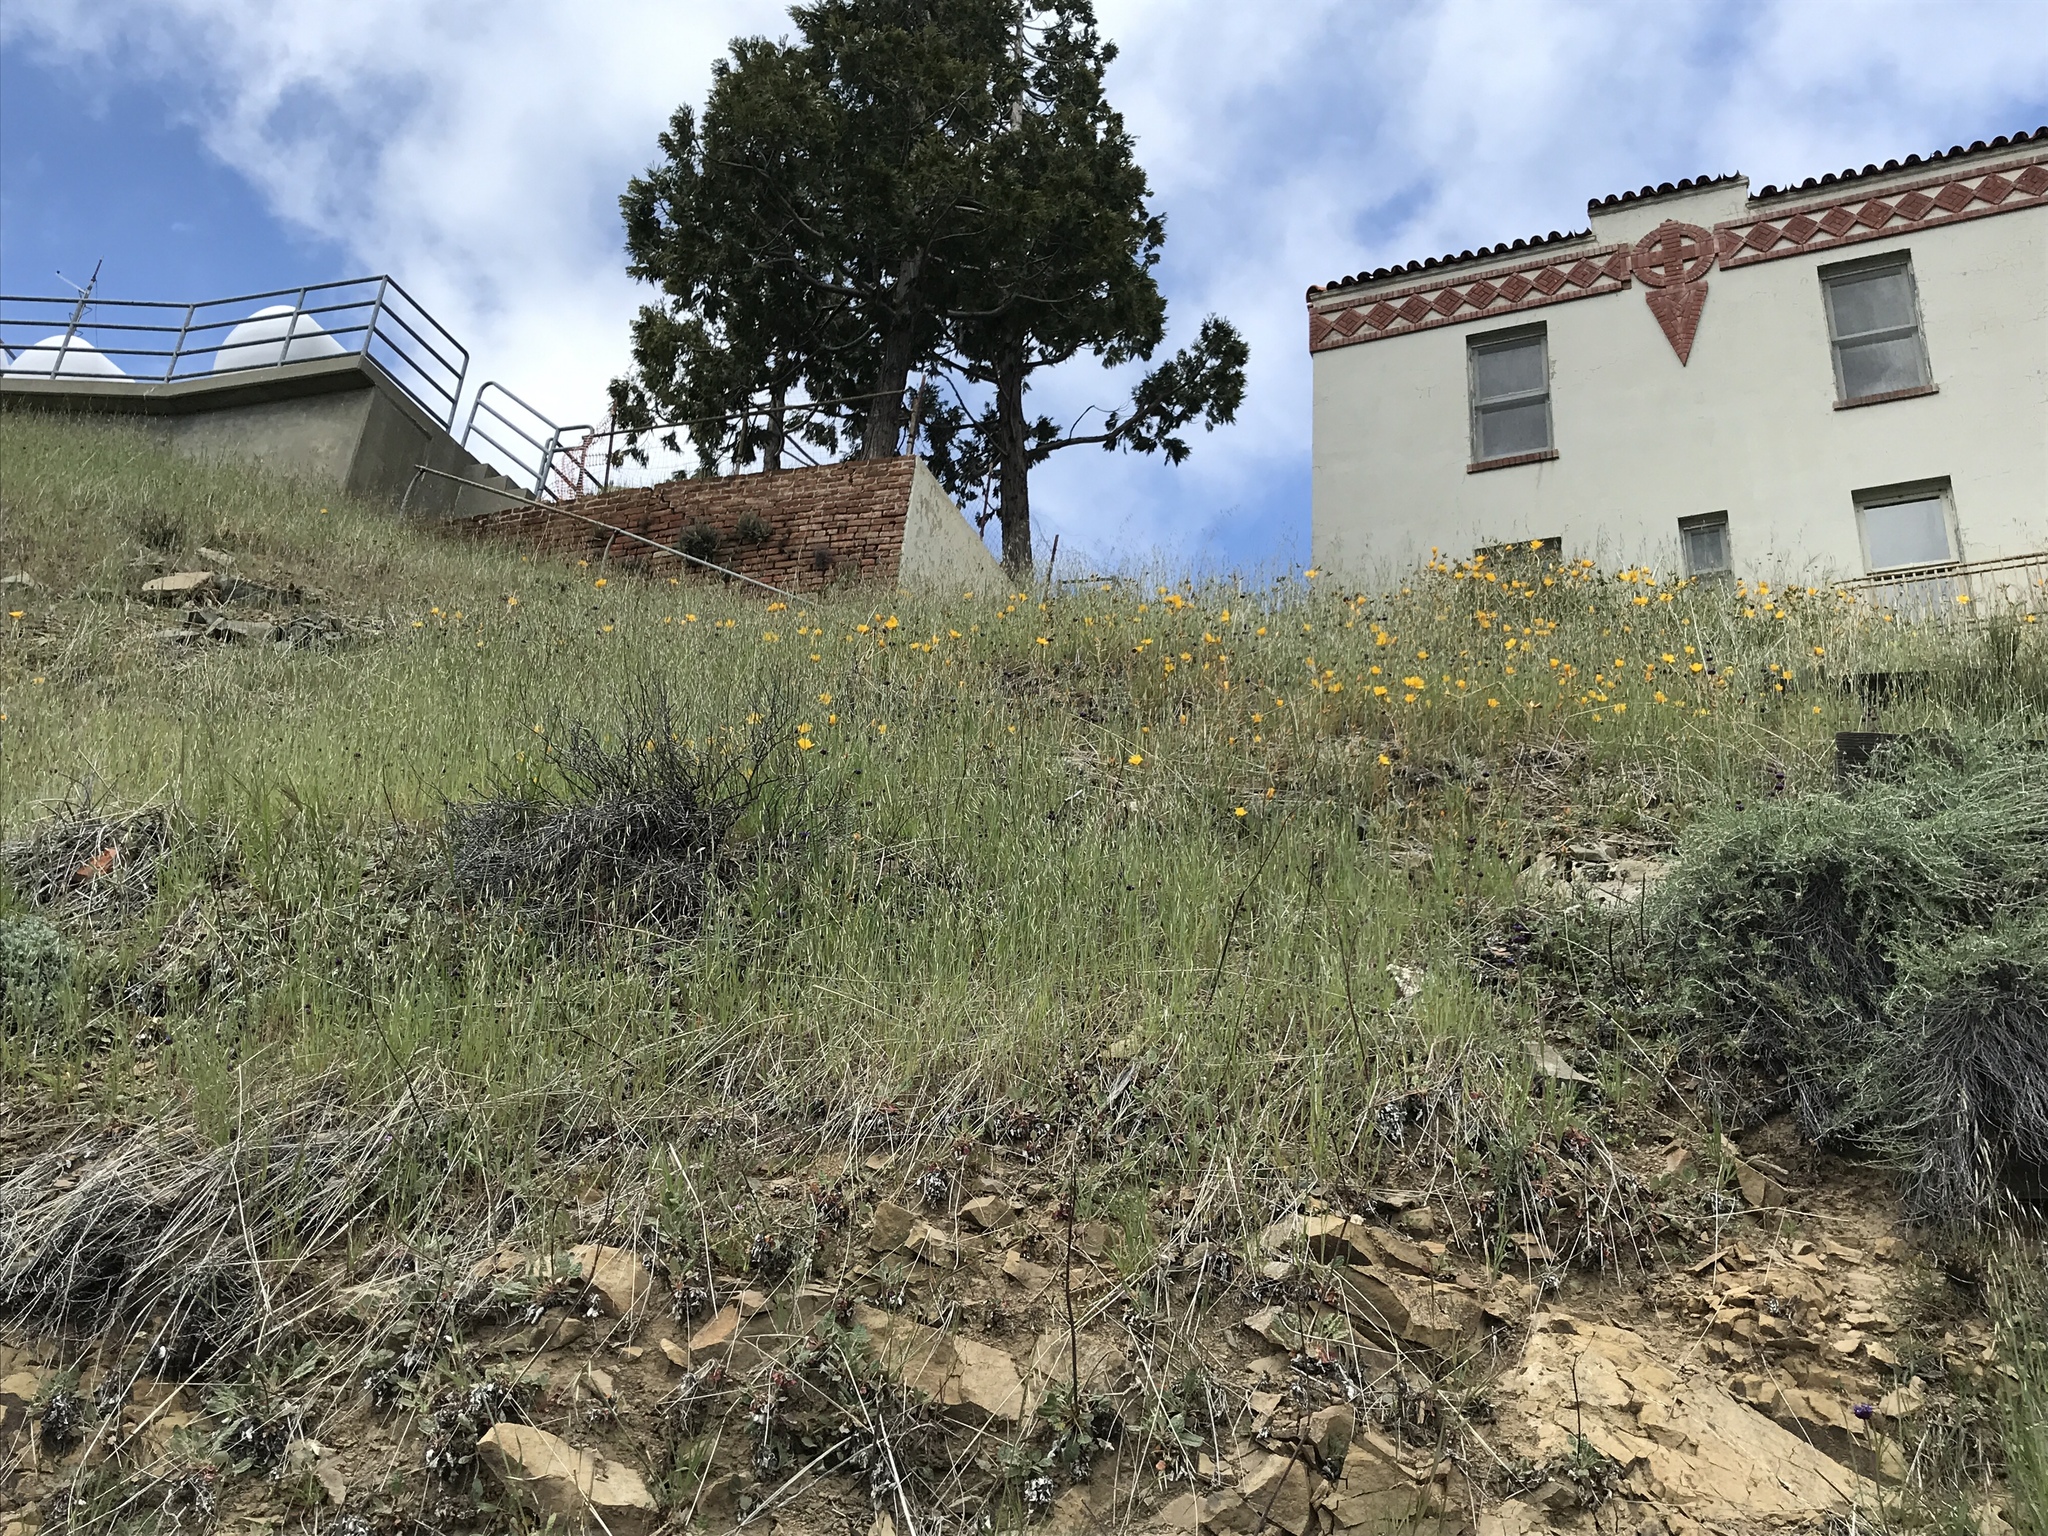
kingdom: Plantae
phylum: Tracheophyta
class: Magnoliopsida
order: Cornales
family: Loasaceae
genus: Mentzelia
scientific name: Mentzelia lindleyi
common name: Golden bartonia
